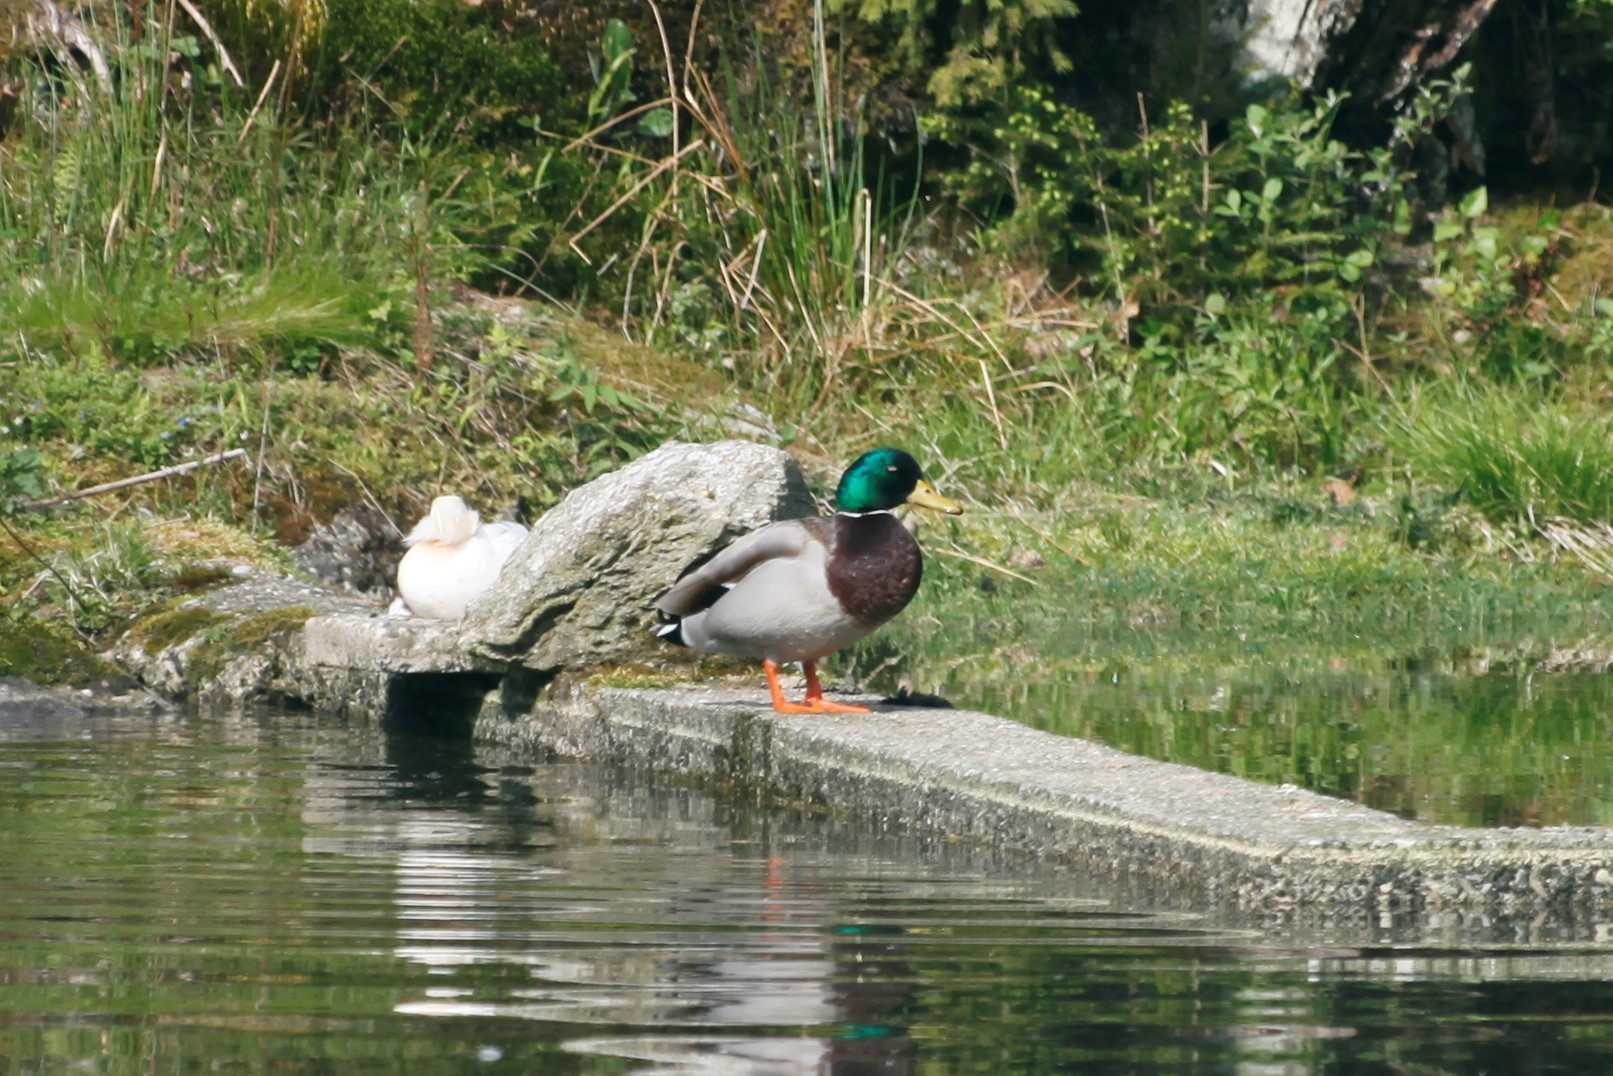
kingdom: Animalia
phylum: Chordata
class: Aves
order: Anseriformes
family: Anatidae
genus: Anas
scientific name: Anas platyrhynchos
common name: Mallard
